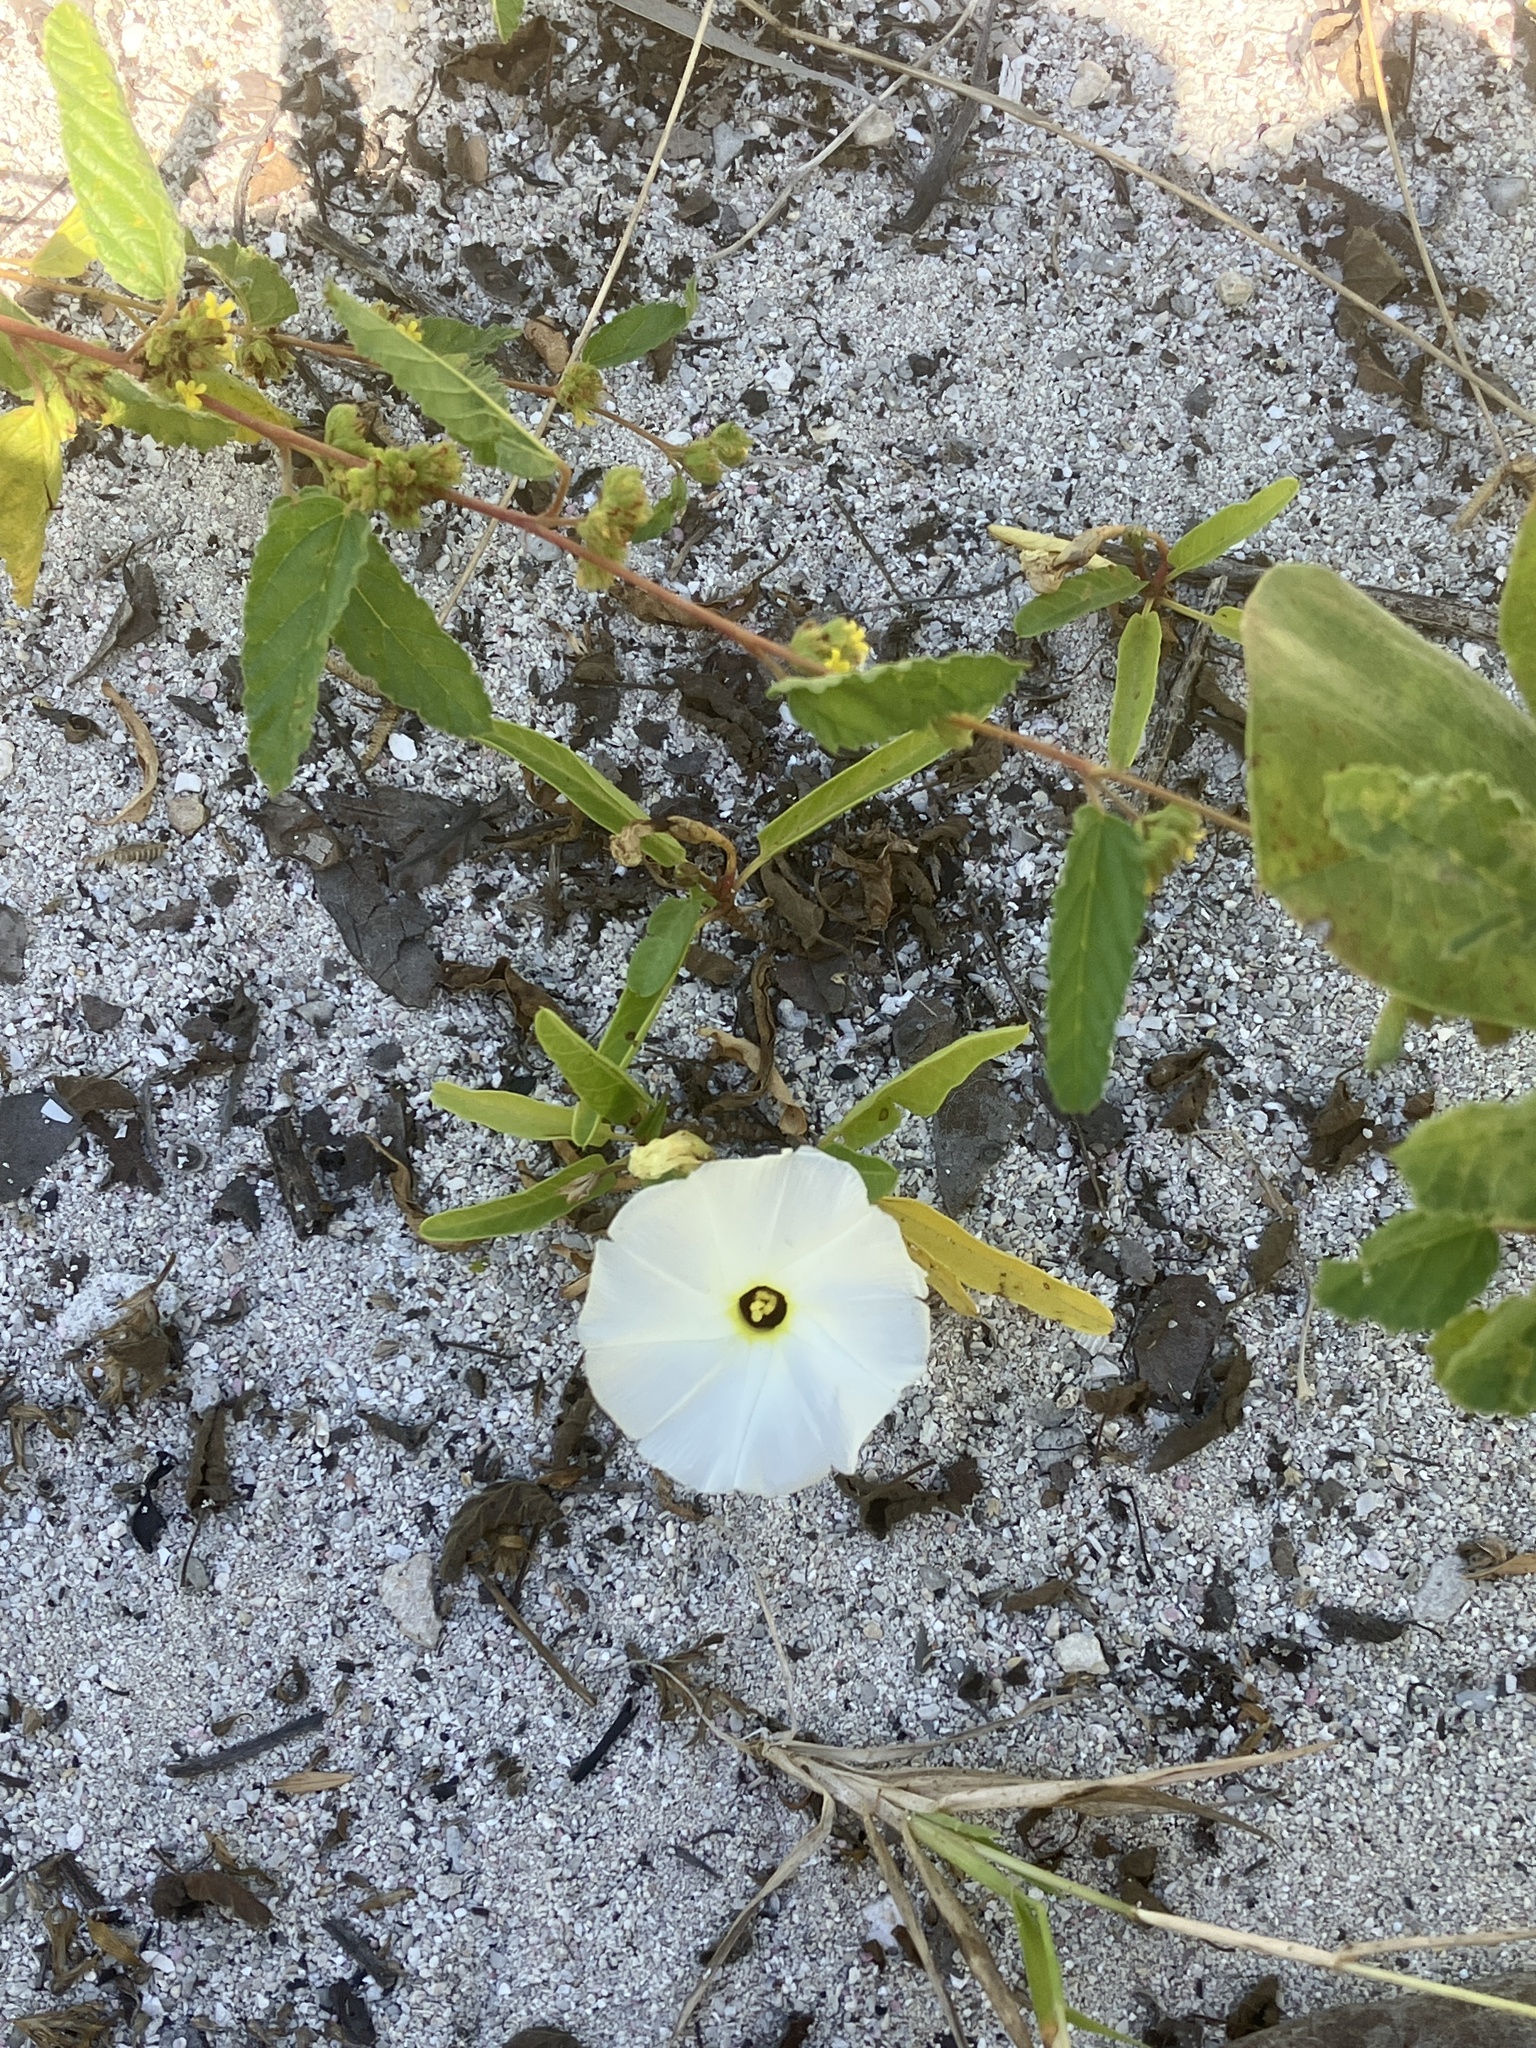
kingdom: Plantae
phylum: Tracheophyta
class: Magnoliopsida
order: Solanales
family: Convolvulaceae
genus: Ipomoea
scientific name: Ipomoea imperati
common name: Fiddle-leaf morning-glory
